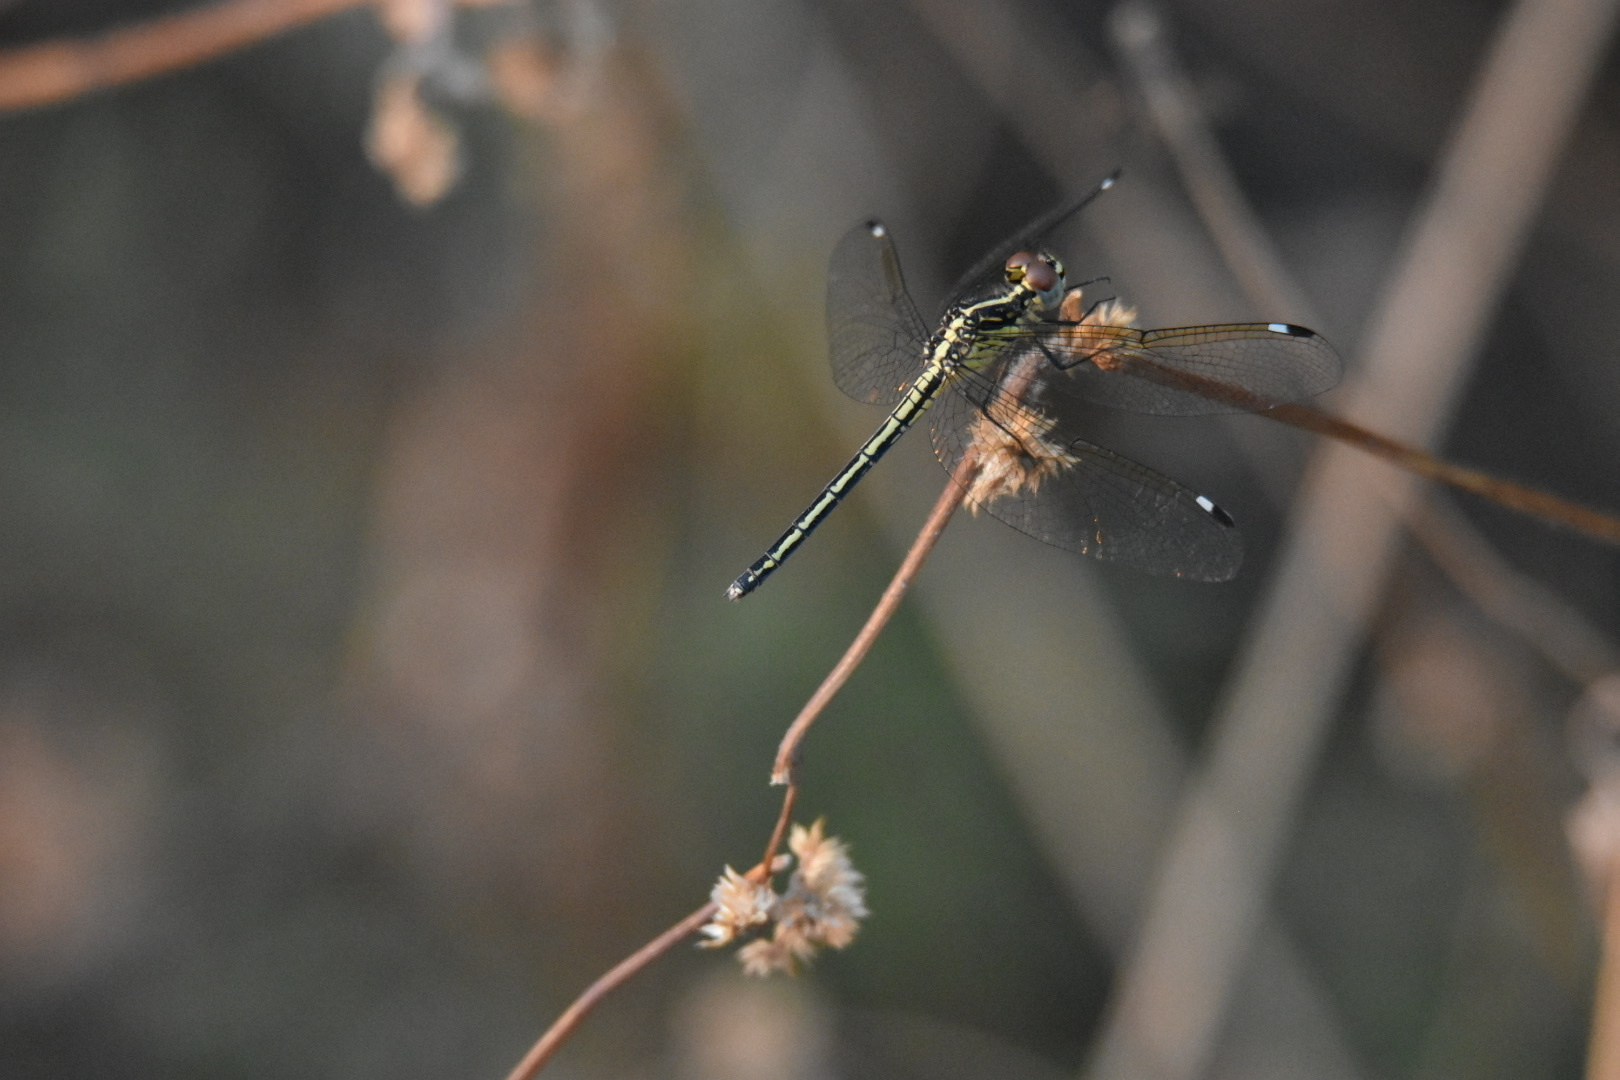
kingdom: Animalia
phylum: Arthropoda
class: Insecta
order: Odonata
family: Libellulidae
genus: Hemistigma
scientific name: Hemistigma albipunctum
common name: African pied-spot
